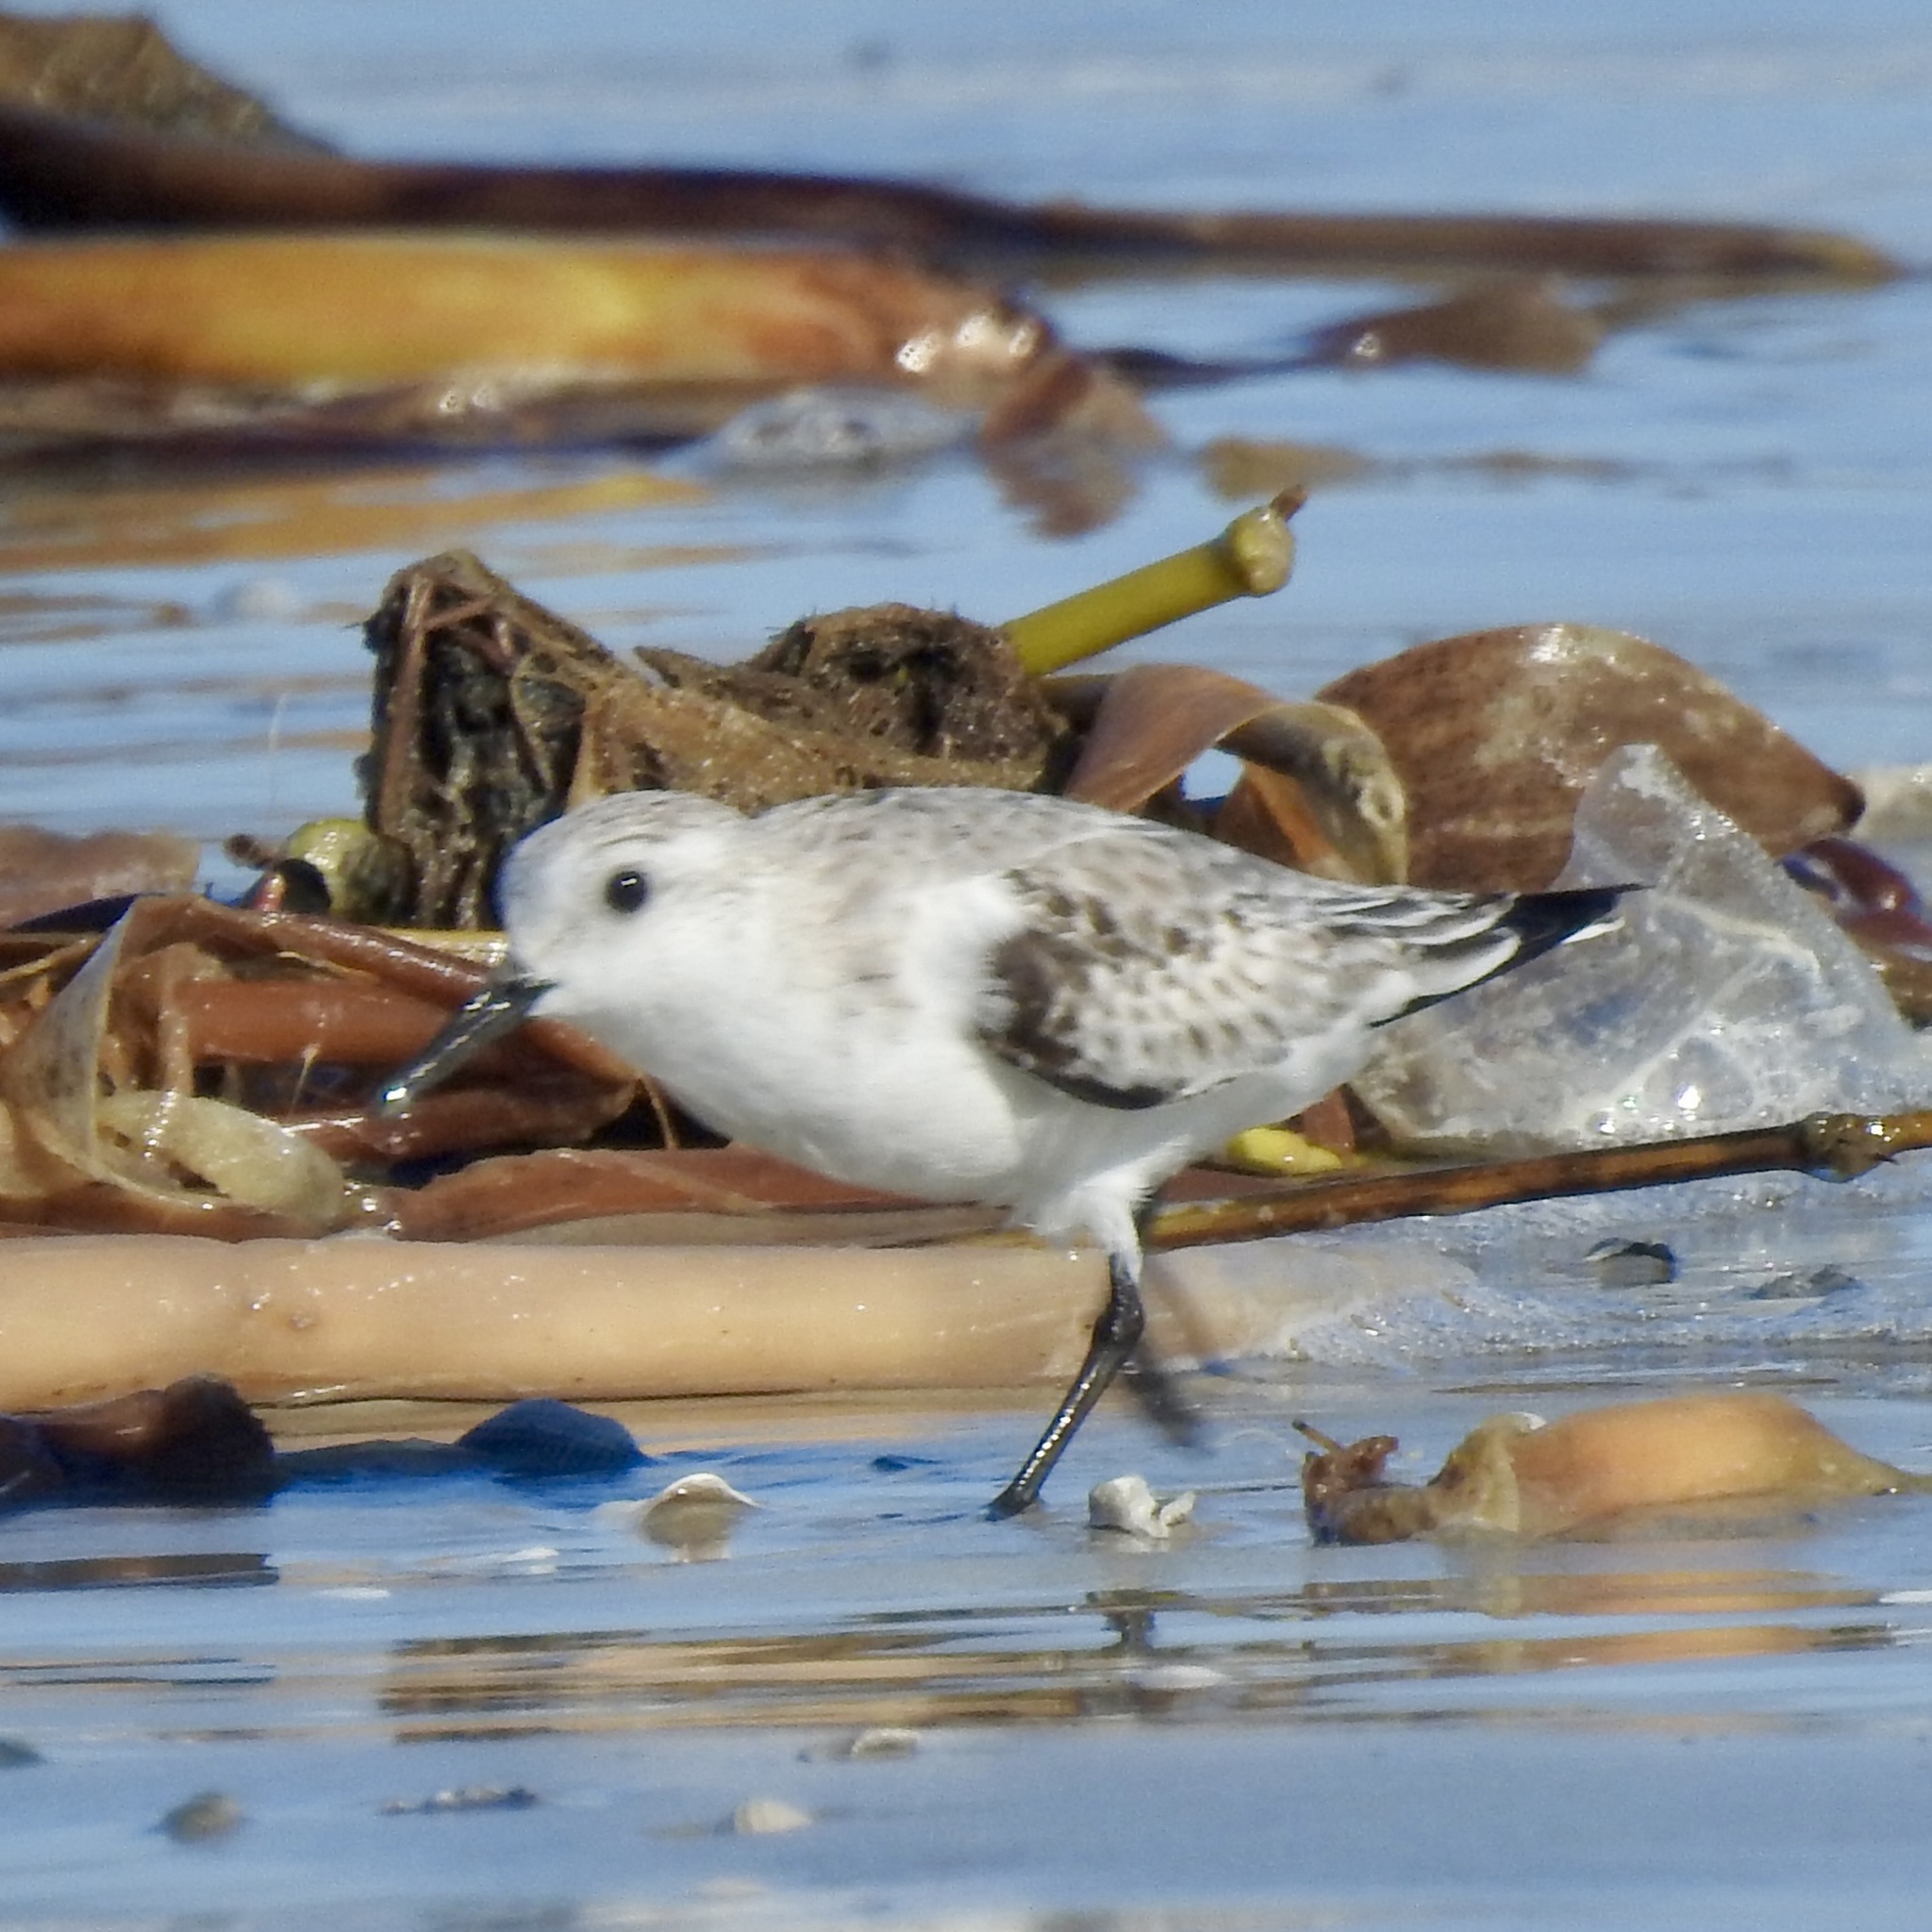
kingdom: Animalia
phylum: Chordata
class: Aves
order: Charadriiformes
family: Scolopacidae
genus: Calidris
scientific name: Calidris alba
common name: Sanderling
